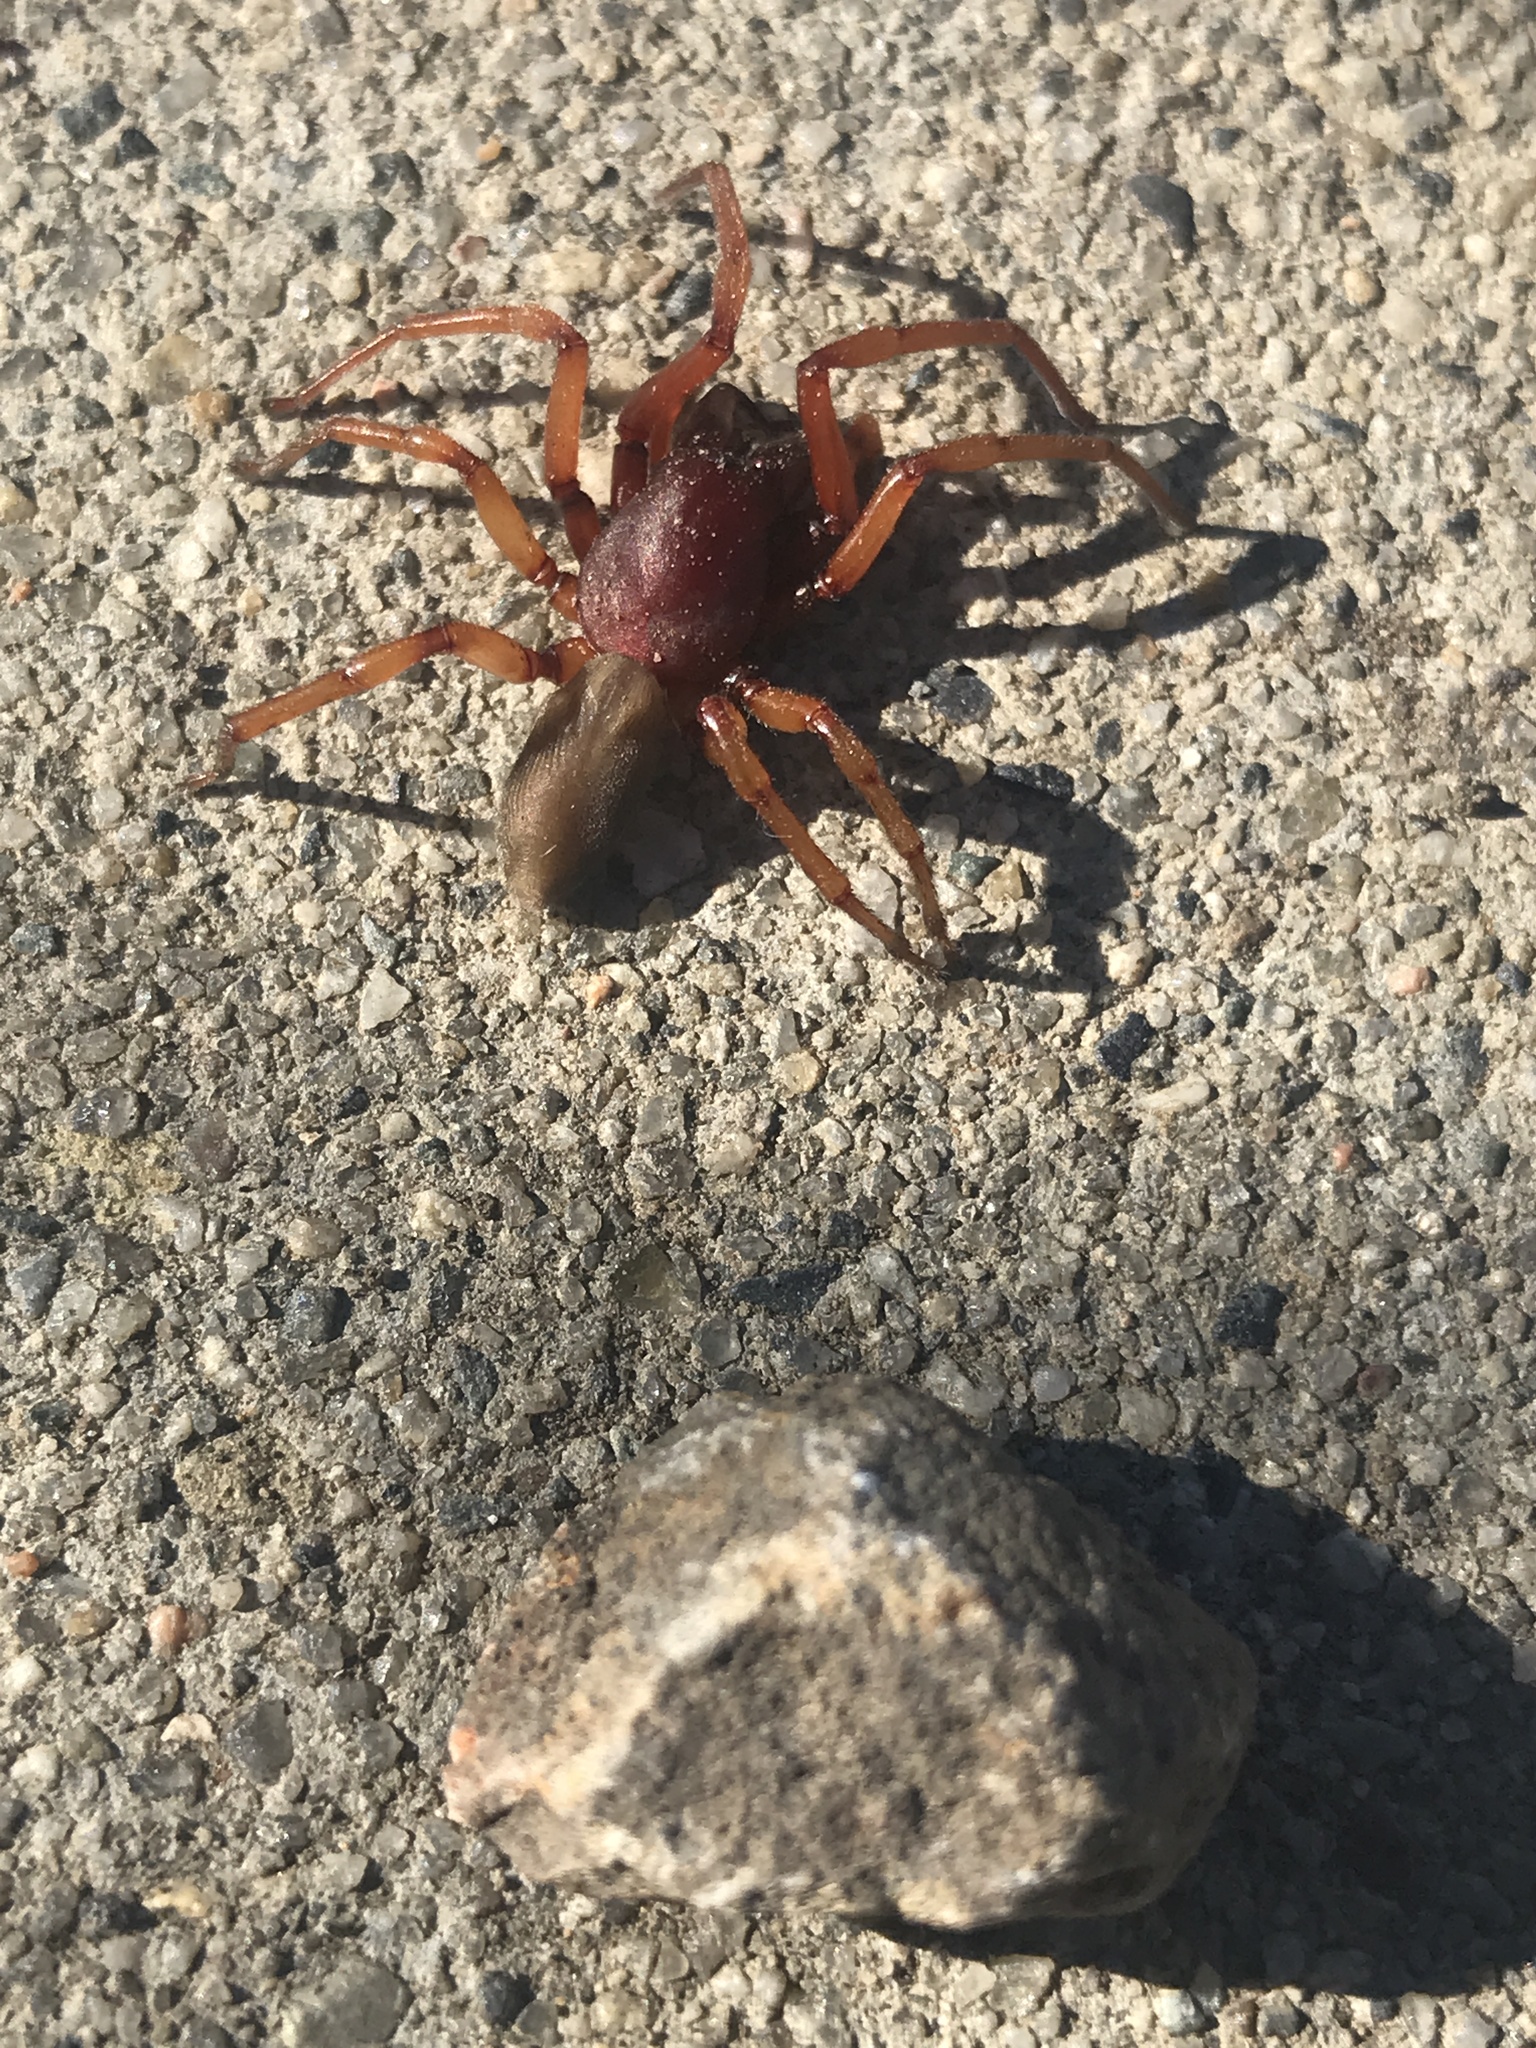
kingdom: Animalia
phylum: Arthropoda
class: Arachnida
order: Araneae
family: Dysderidae
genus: Dysdera
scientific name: Dysdera crocata
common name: Woodlouse spider
